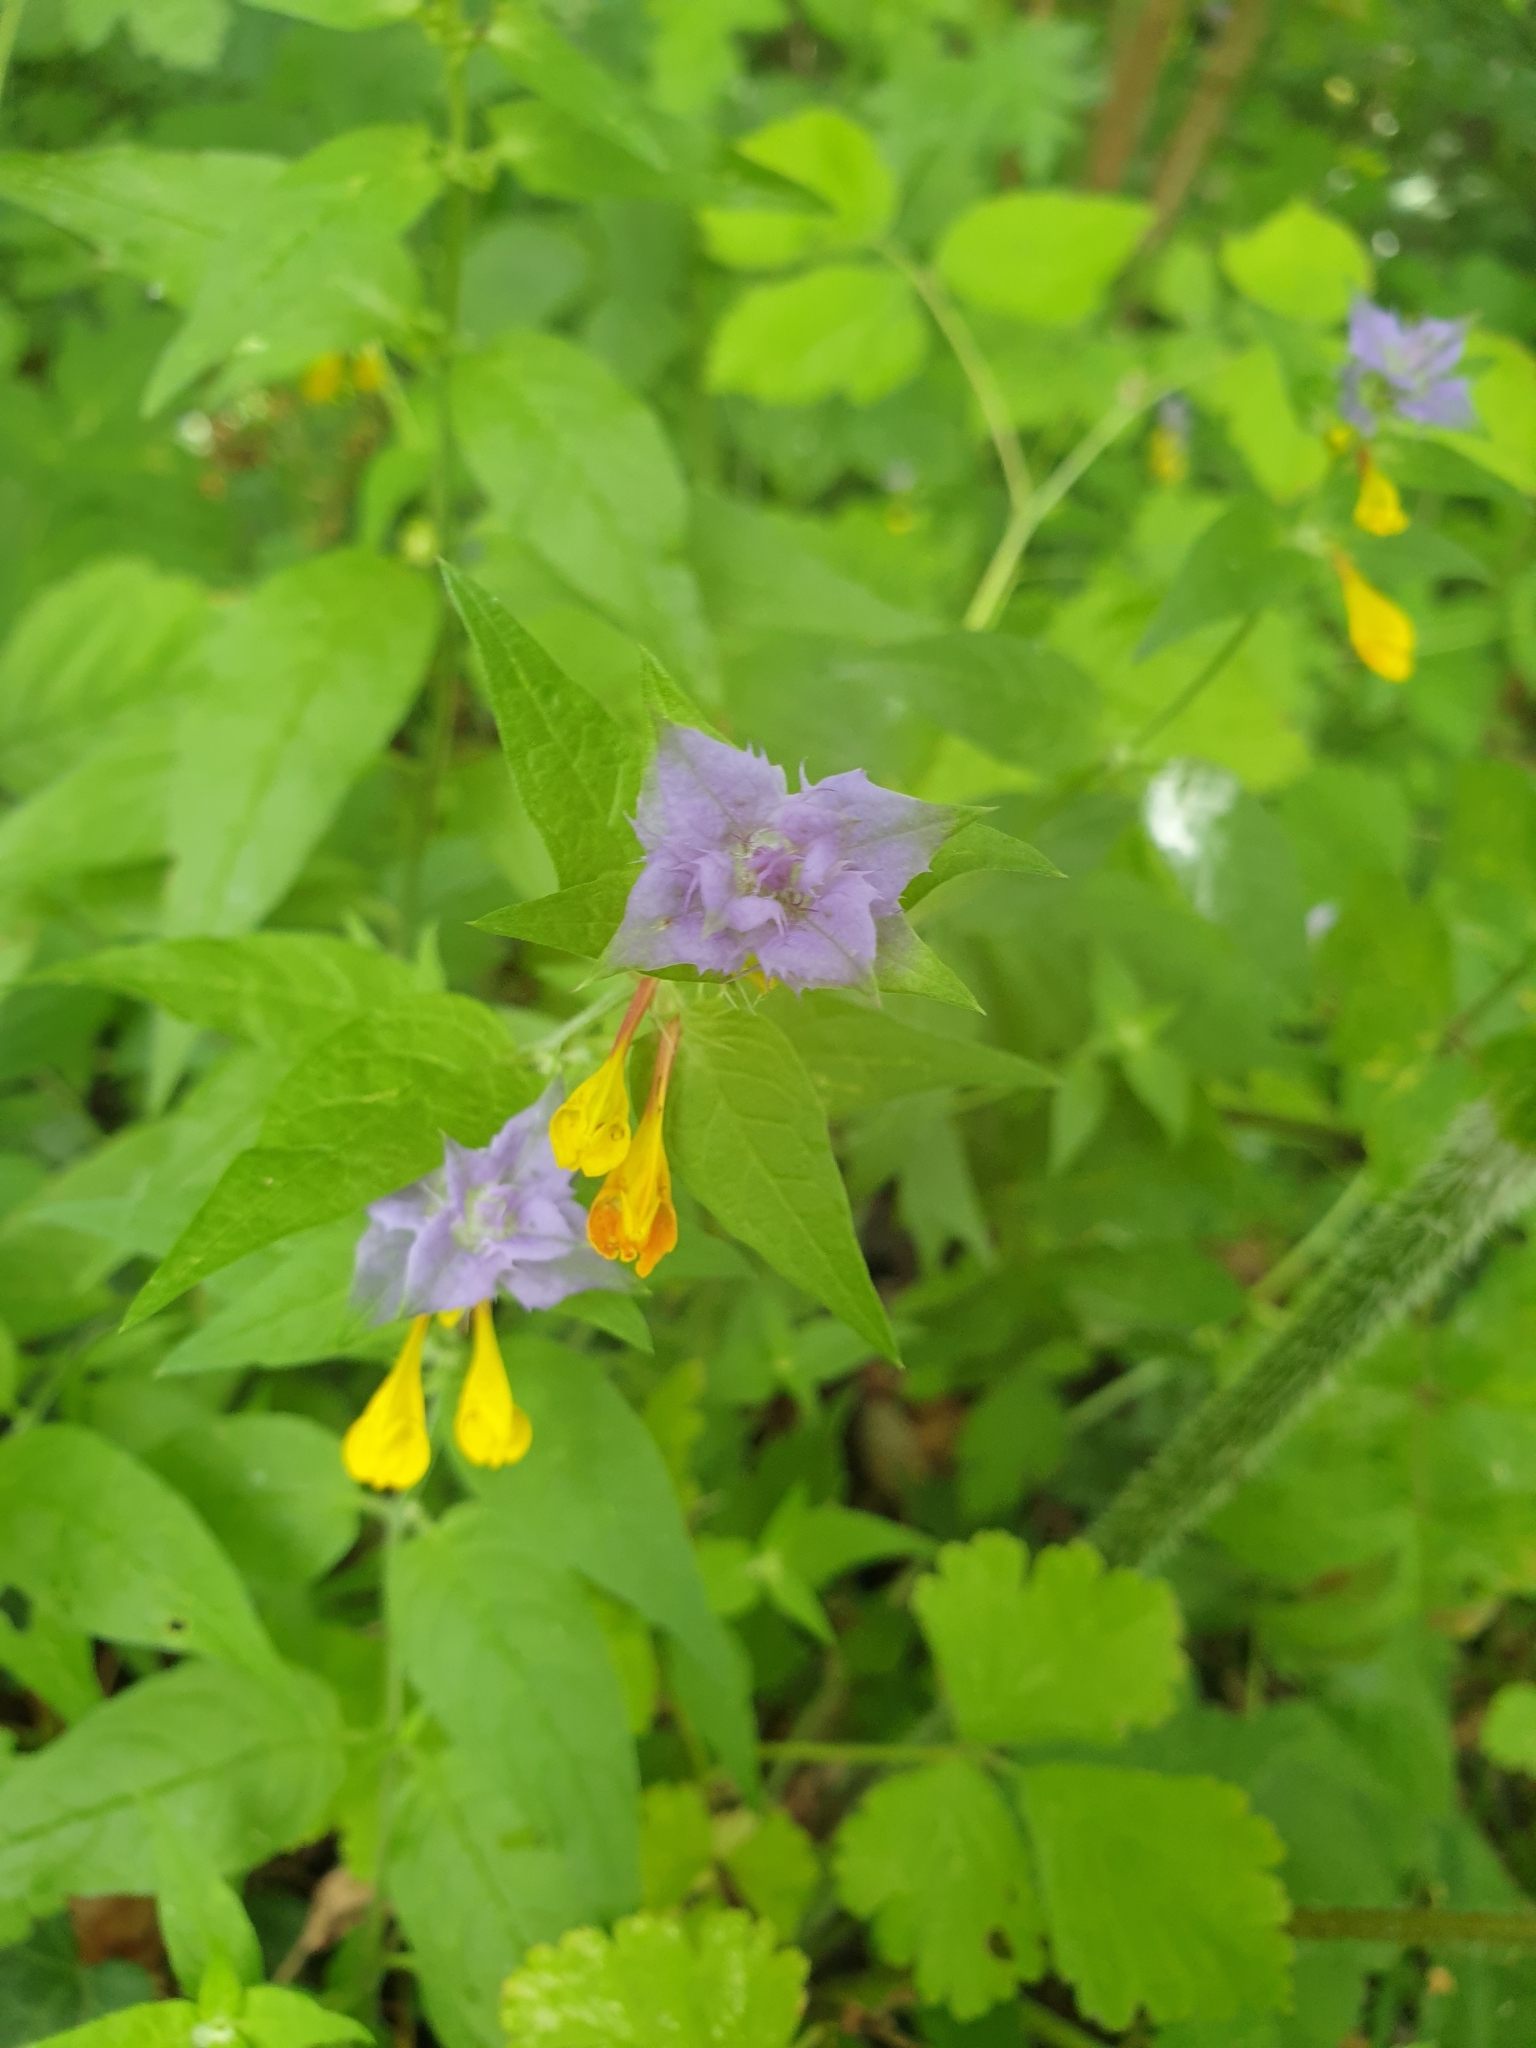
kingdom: Plantae
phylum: Tracheophyta
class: Magnoliopsida
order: Lamiales
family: Orobanchaceae
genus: Melampyrum
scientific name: Melampyrum nemorosum
